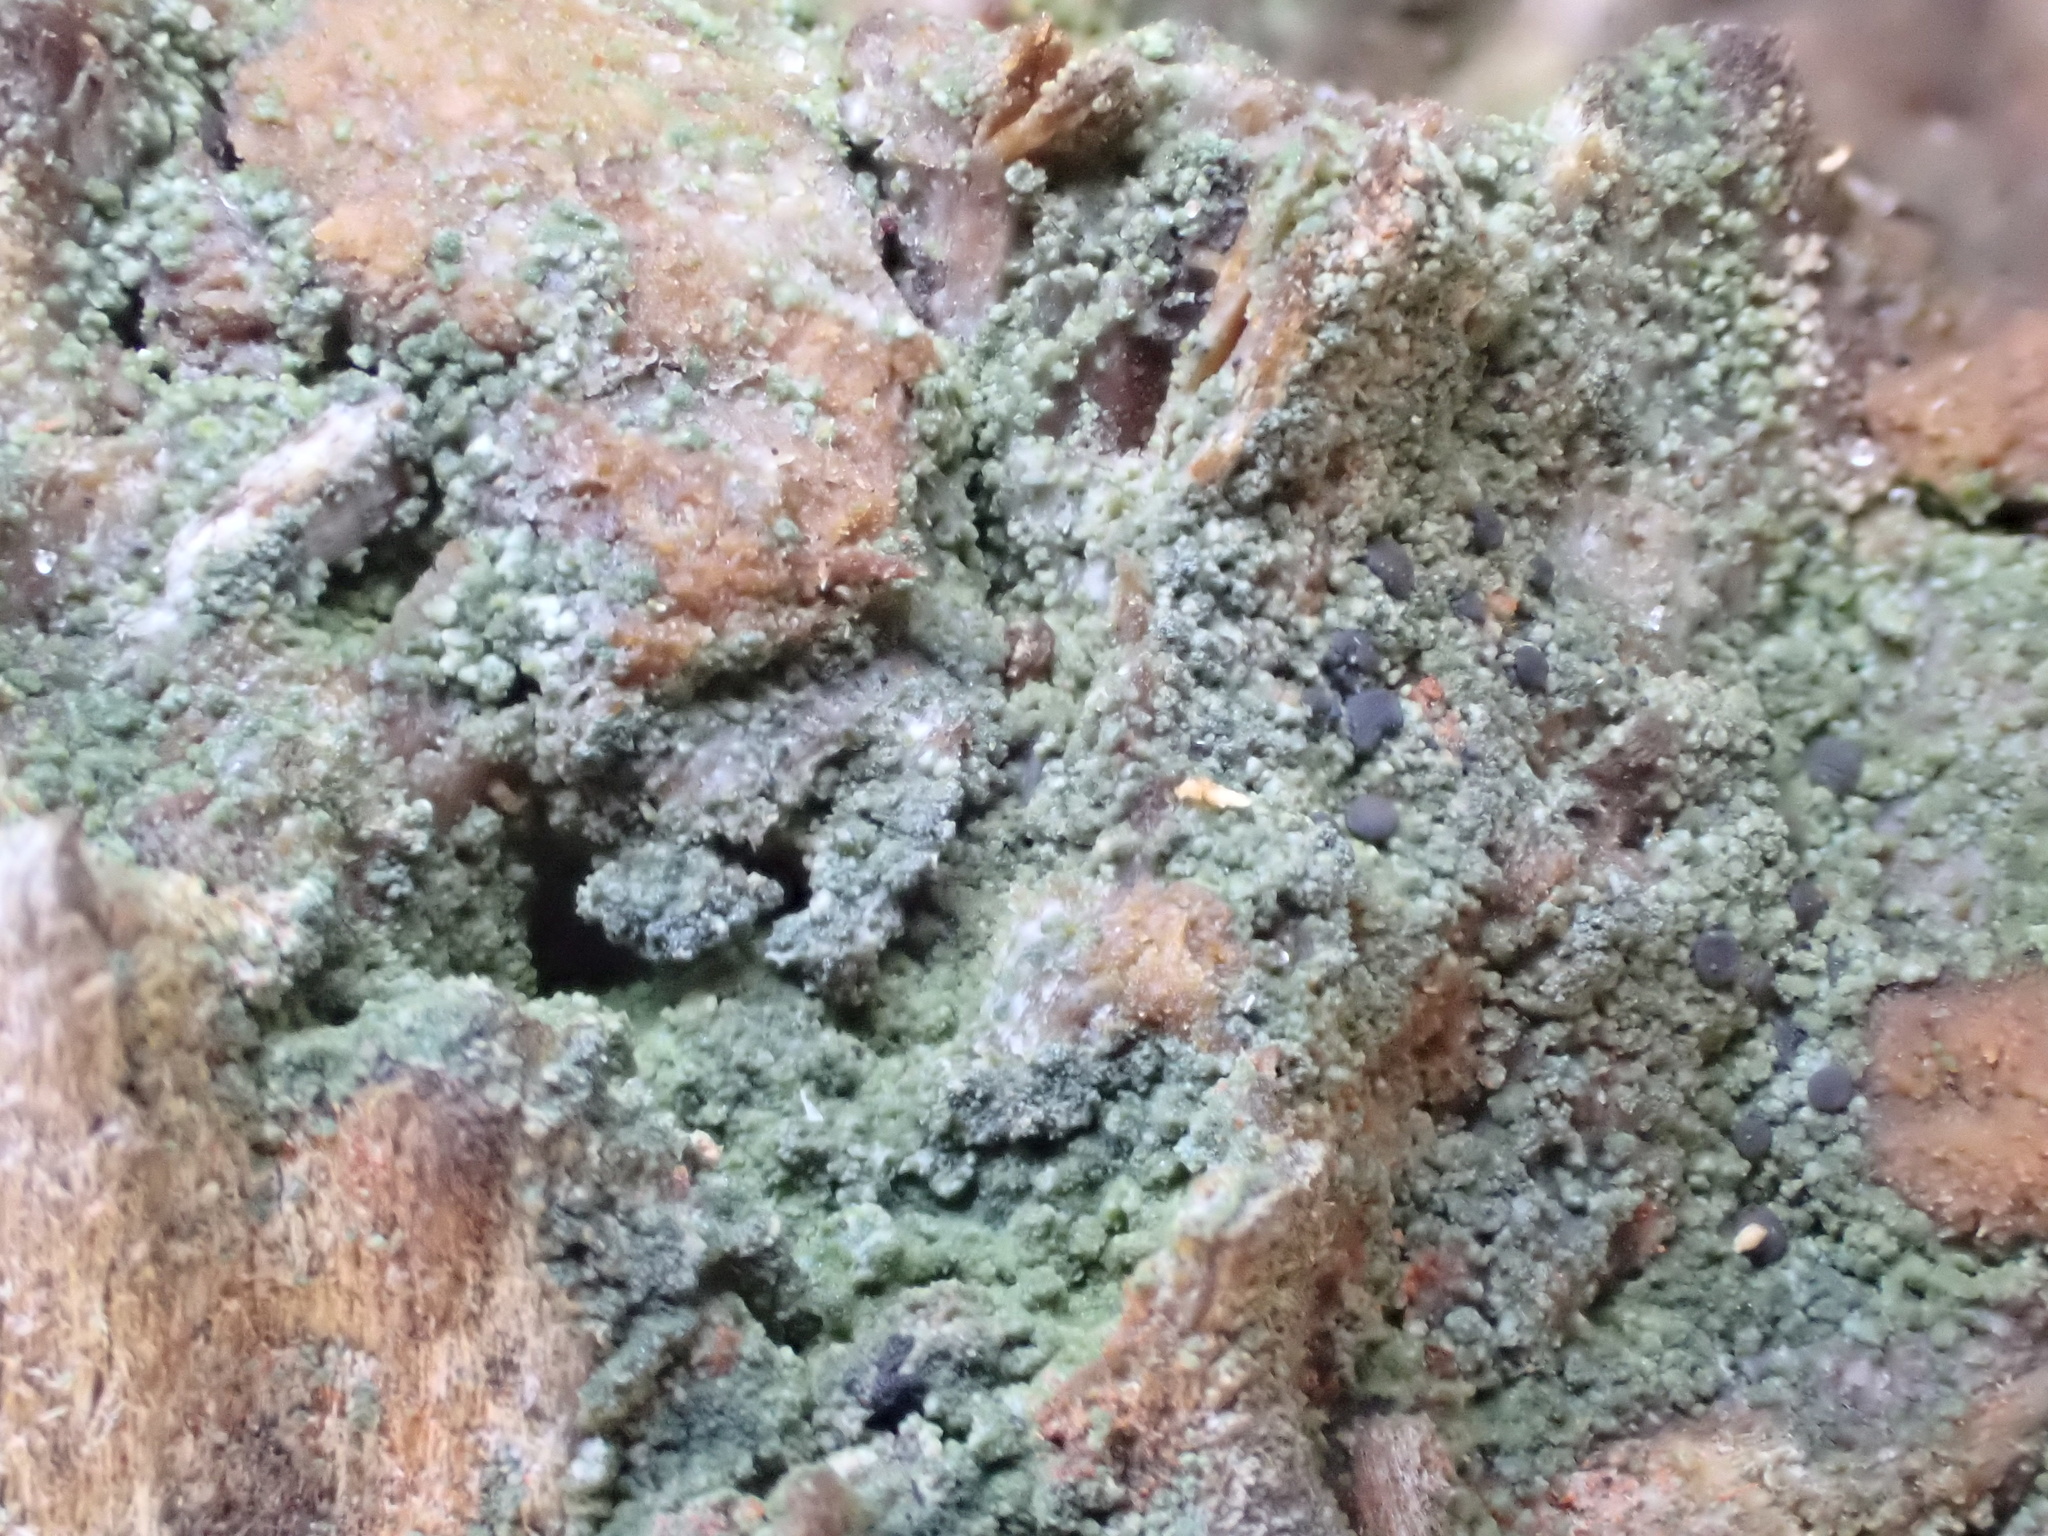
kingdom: Fungi
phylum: Ascomycota
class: Lecanoromycetes
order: Baeomycetales
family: Trapeliaceae
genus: Trapeliopsis
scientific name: Trapeliopsis flexuosa
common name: Board lichen
